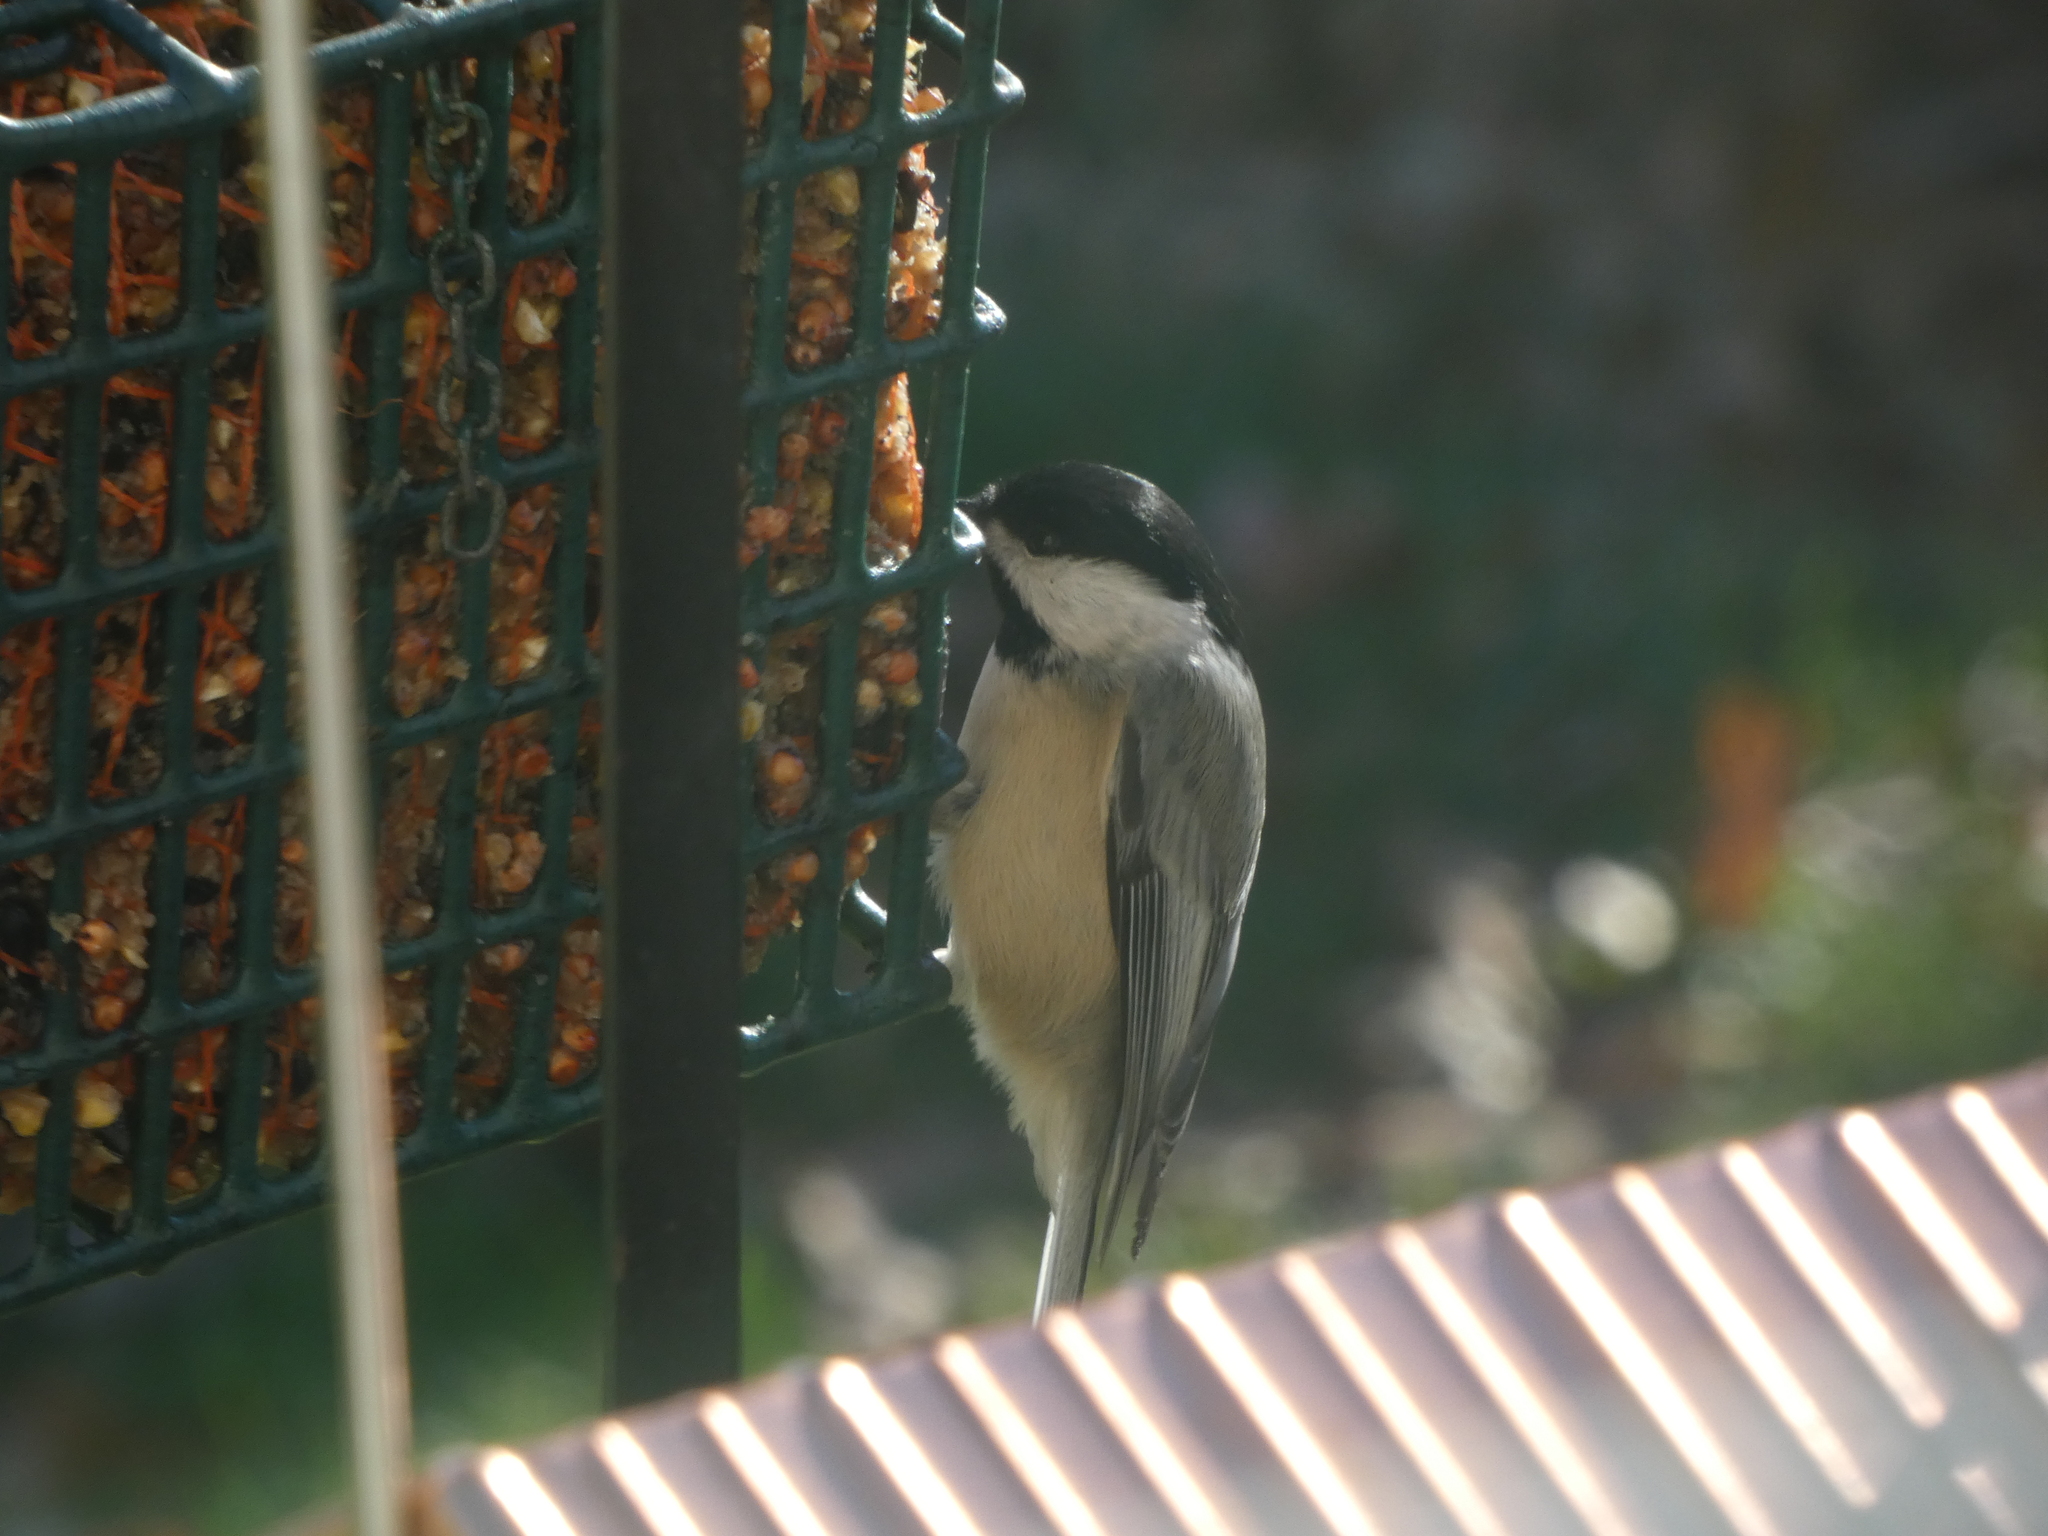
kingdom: Animalia
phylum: Chordata
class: Aves
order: Passeriformes
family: Paridae
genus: Poecile
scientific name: Poecile carolinensis
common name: Carolina chickadee
